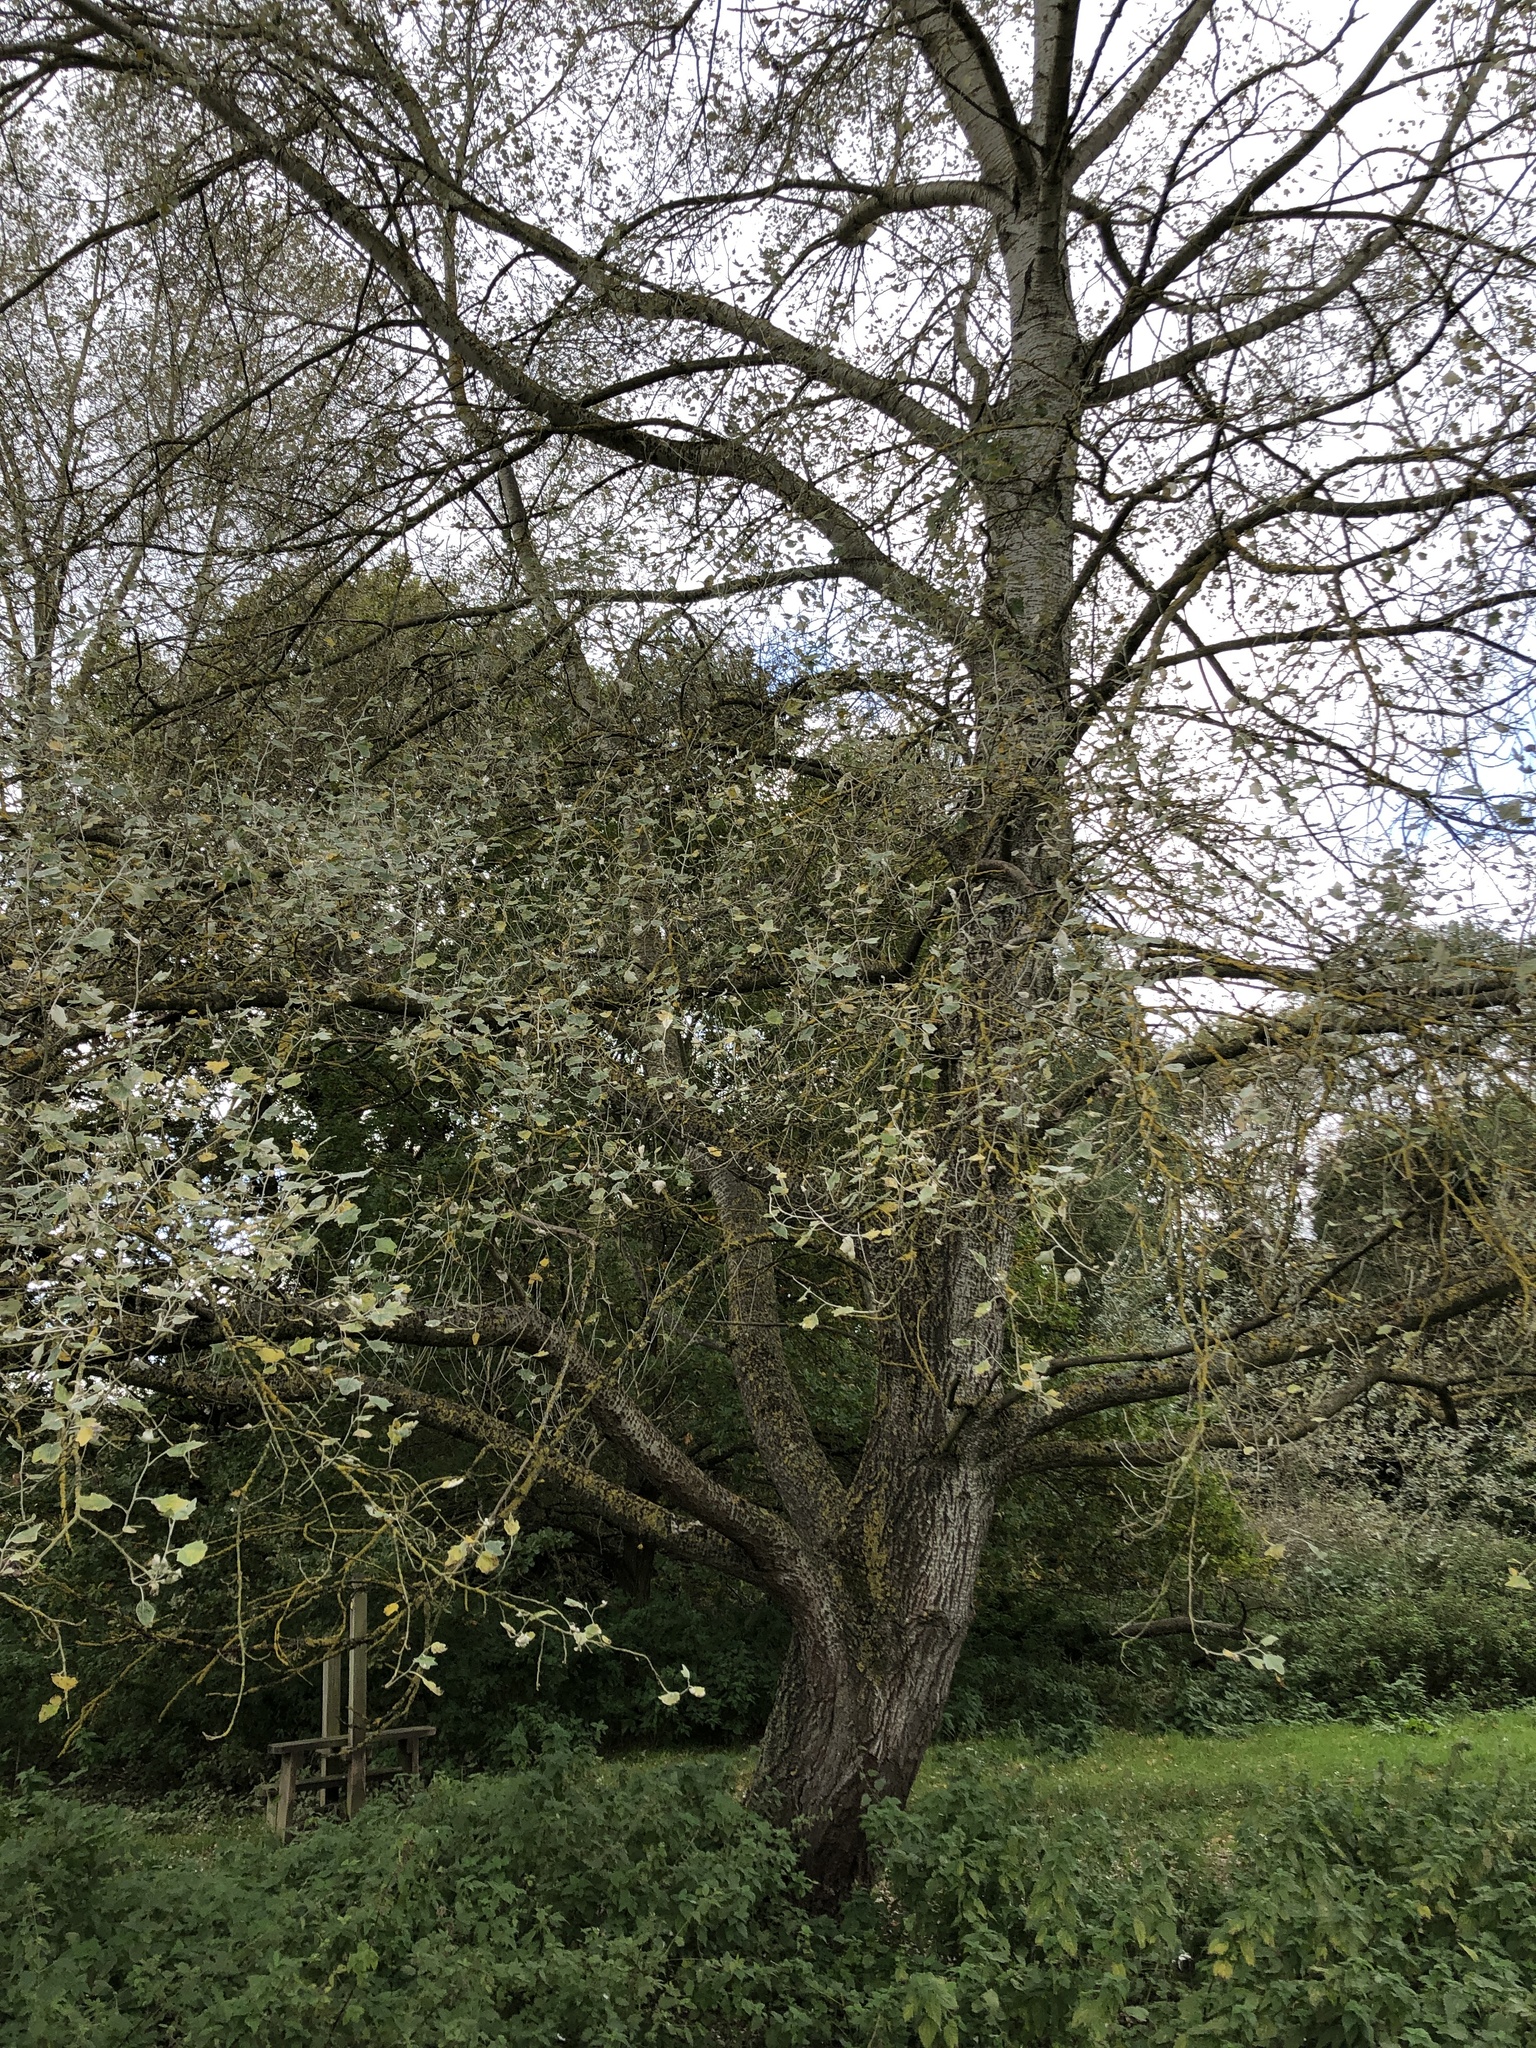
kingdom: Plantae
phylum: Tracheophyta
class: Magnoliopsida
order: Malpighiales
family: Salicaceae
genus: Populus
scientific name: Populus alba
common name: White poplar
